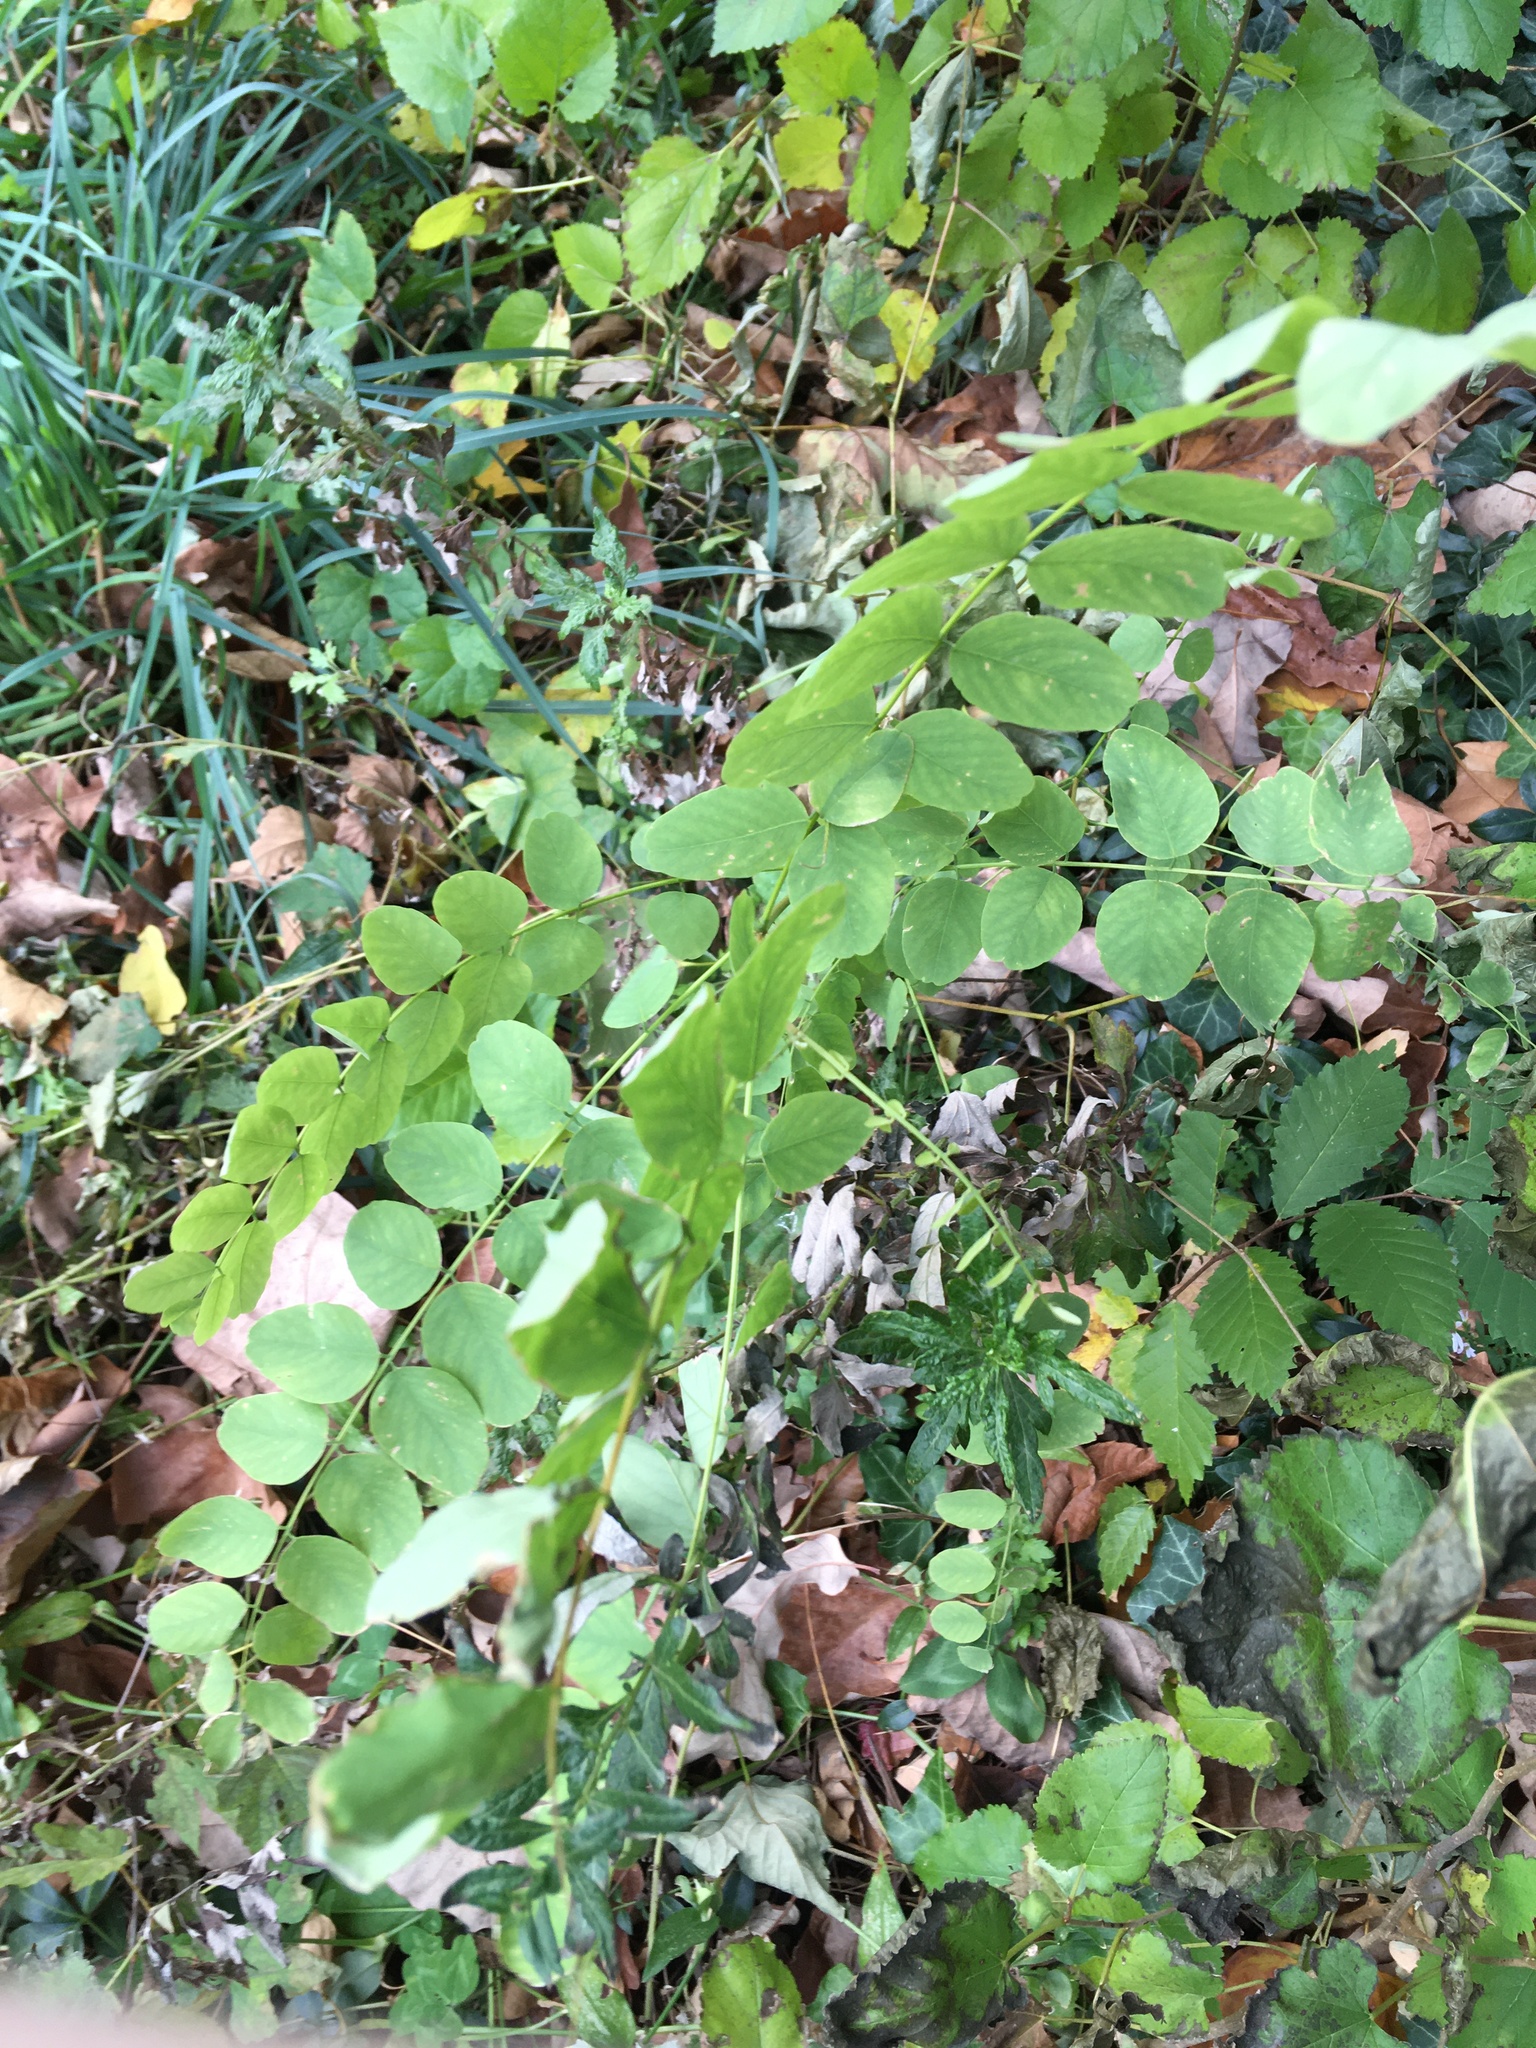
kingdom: Plantae
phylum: Tracheophyta
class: Magnoliopsida
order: Fabales
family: Fabaceae
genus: Robinia
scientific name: Robinia pseudoacacia
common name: Black locust
